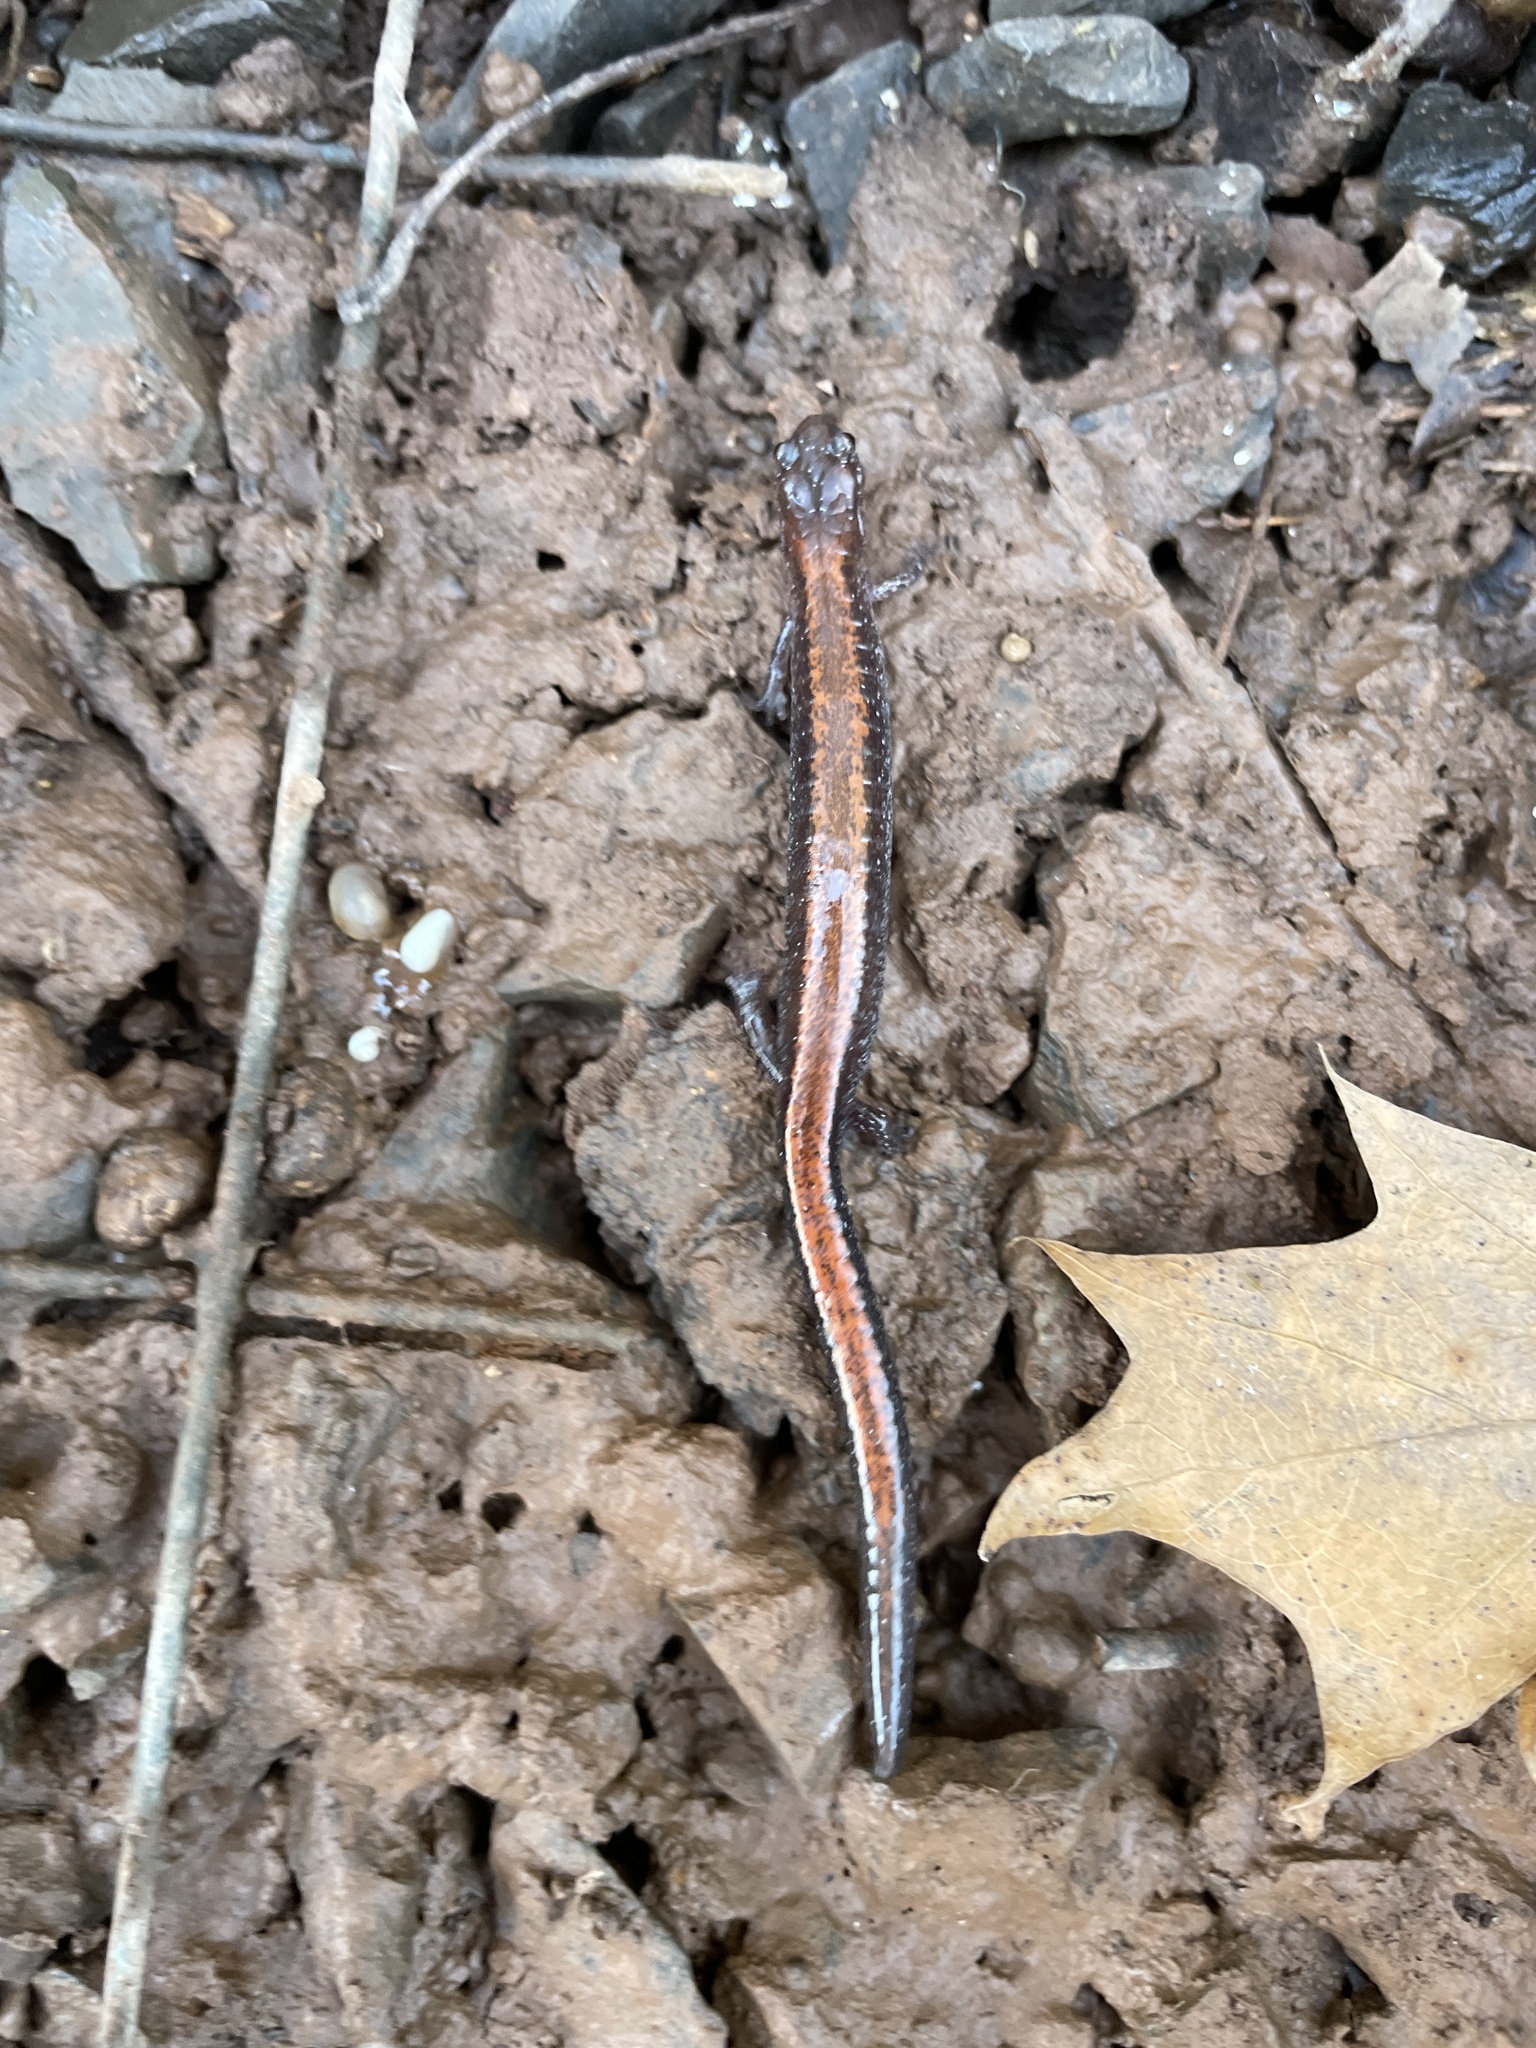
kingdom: Animalia
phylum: Chordata
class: Amphibia
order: Caudata
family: Plethodontidae
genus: Plethodon
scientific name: Plethodon cinereus
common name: Redback salamander
